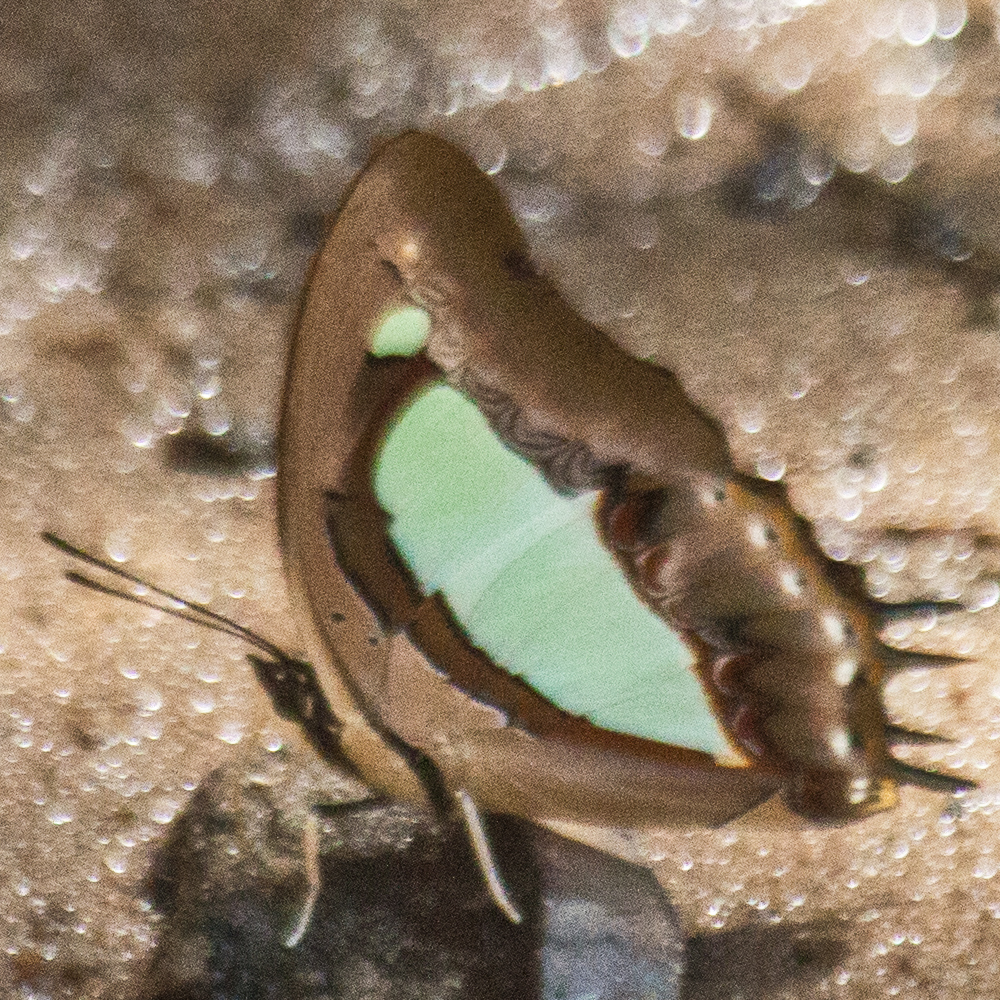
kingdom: Animalia
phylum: Arthropoda
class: Insecta
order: Lepidoptera
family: Nymphalidae
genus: Polyura
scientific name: Polyura arja
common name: Pallid nawab
